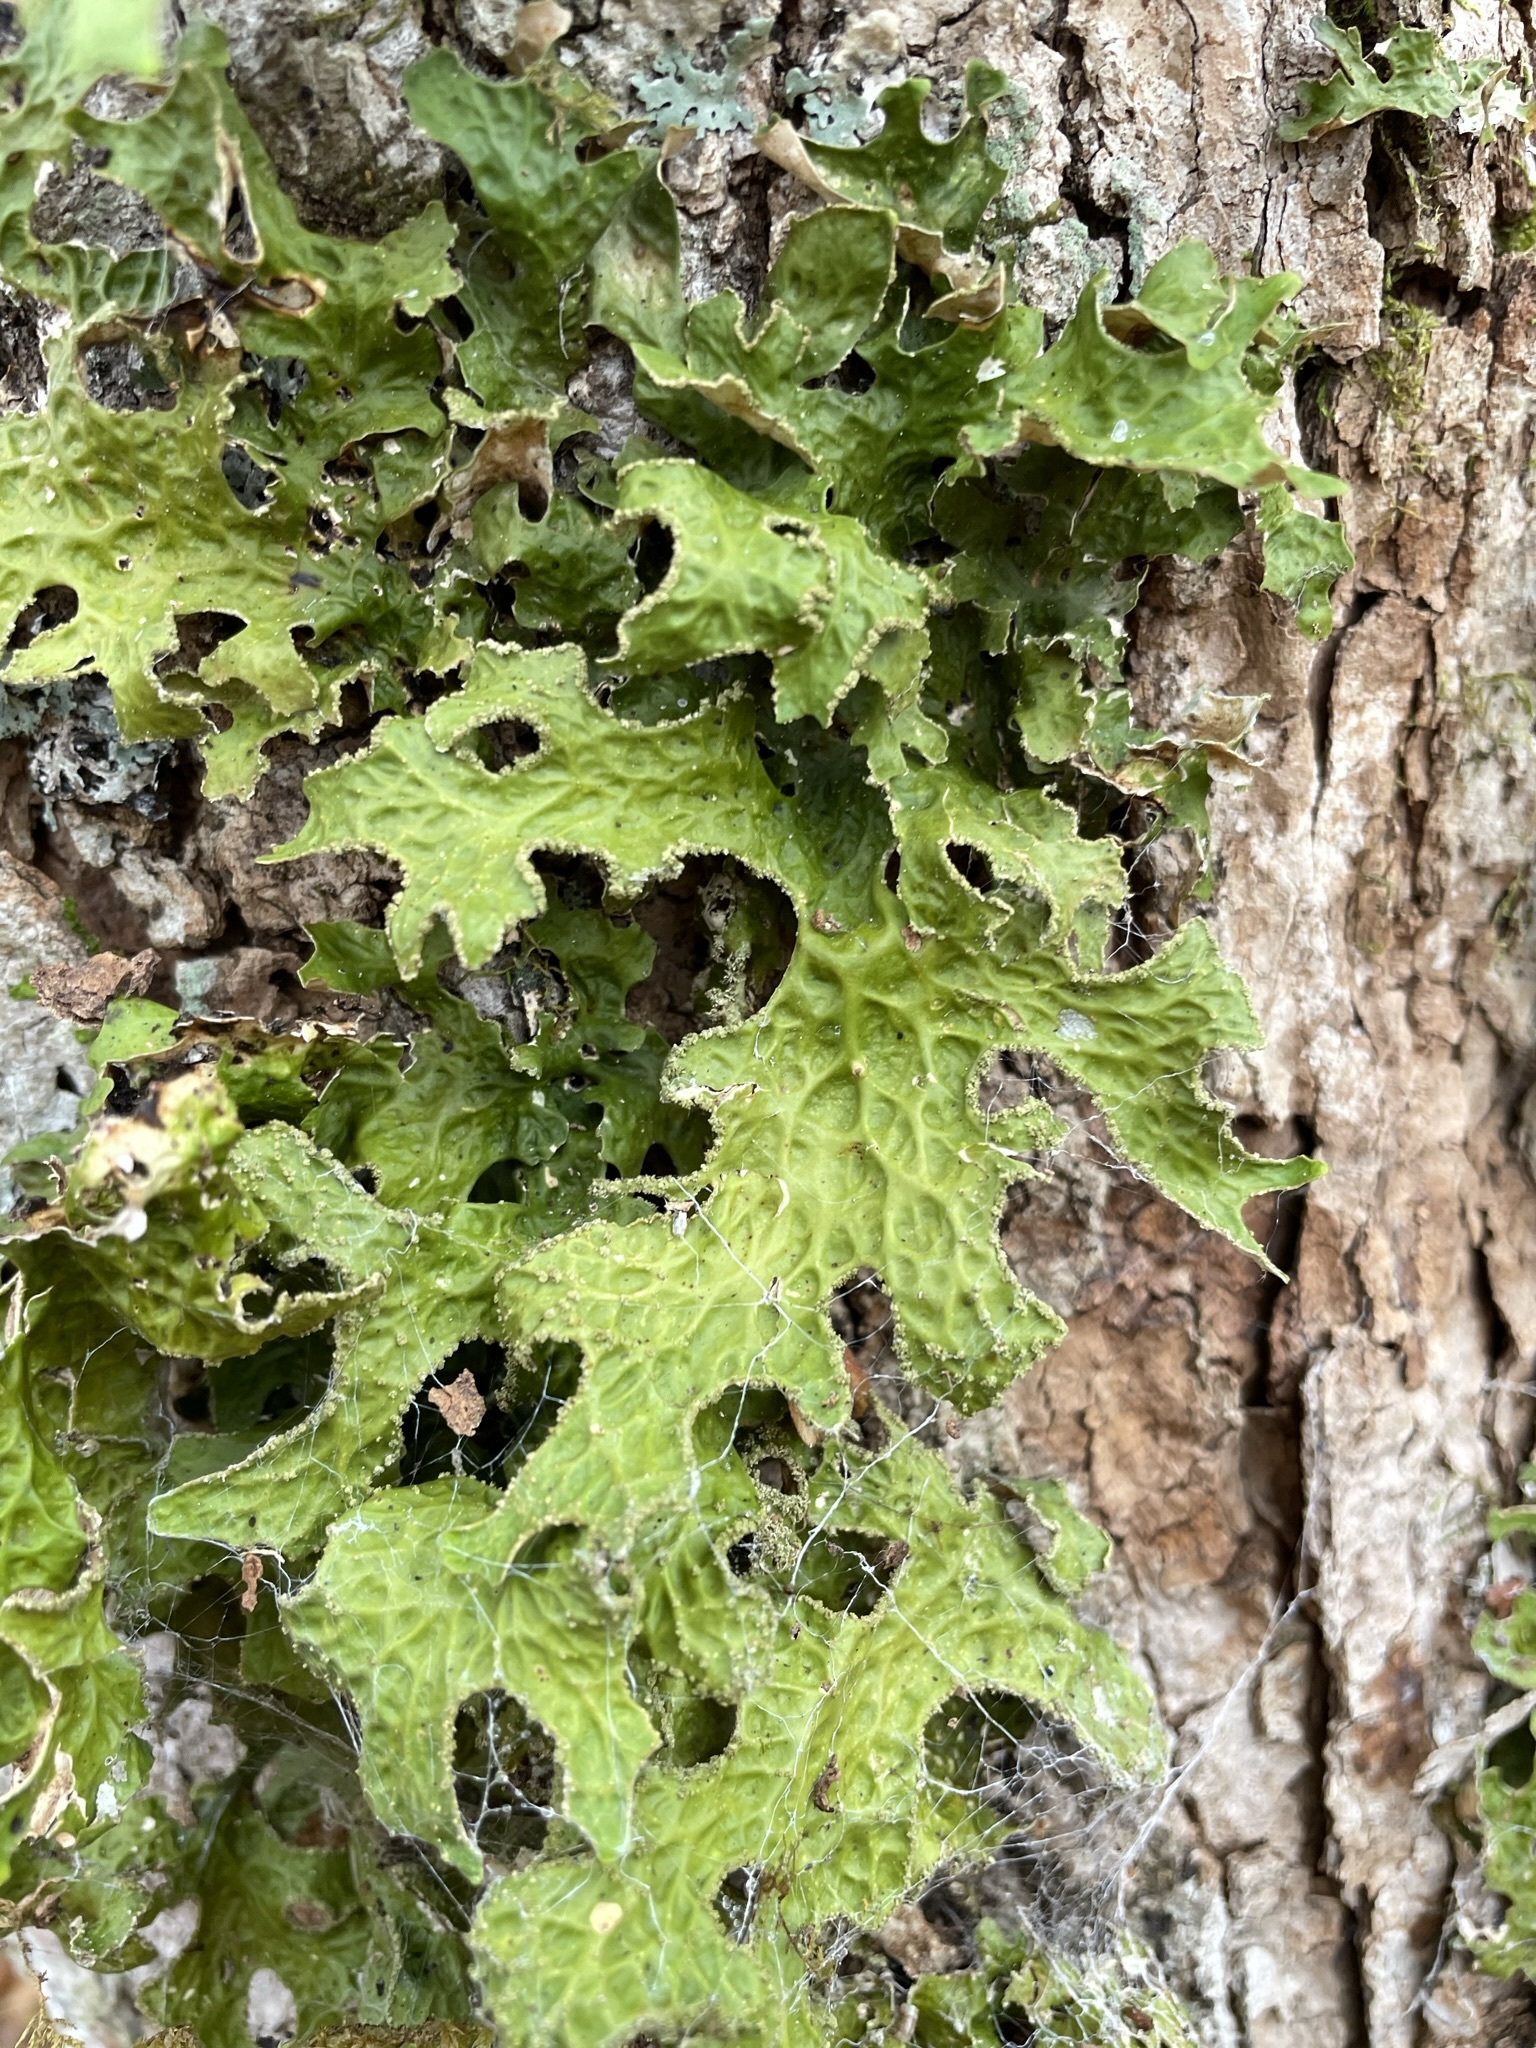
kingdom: Fungi
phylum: Ascomycota
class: Lecanoromycetes
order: Peltigerales
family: Lobariaceae
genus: Lobaria
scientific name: Lobaria pulmonaria
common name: Lungwort
